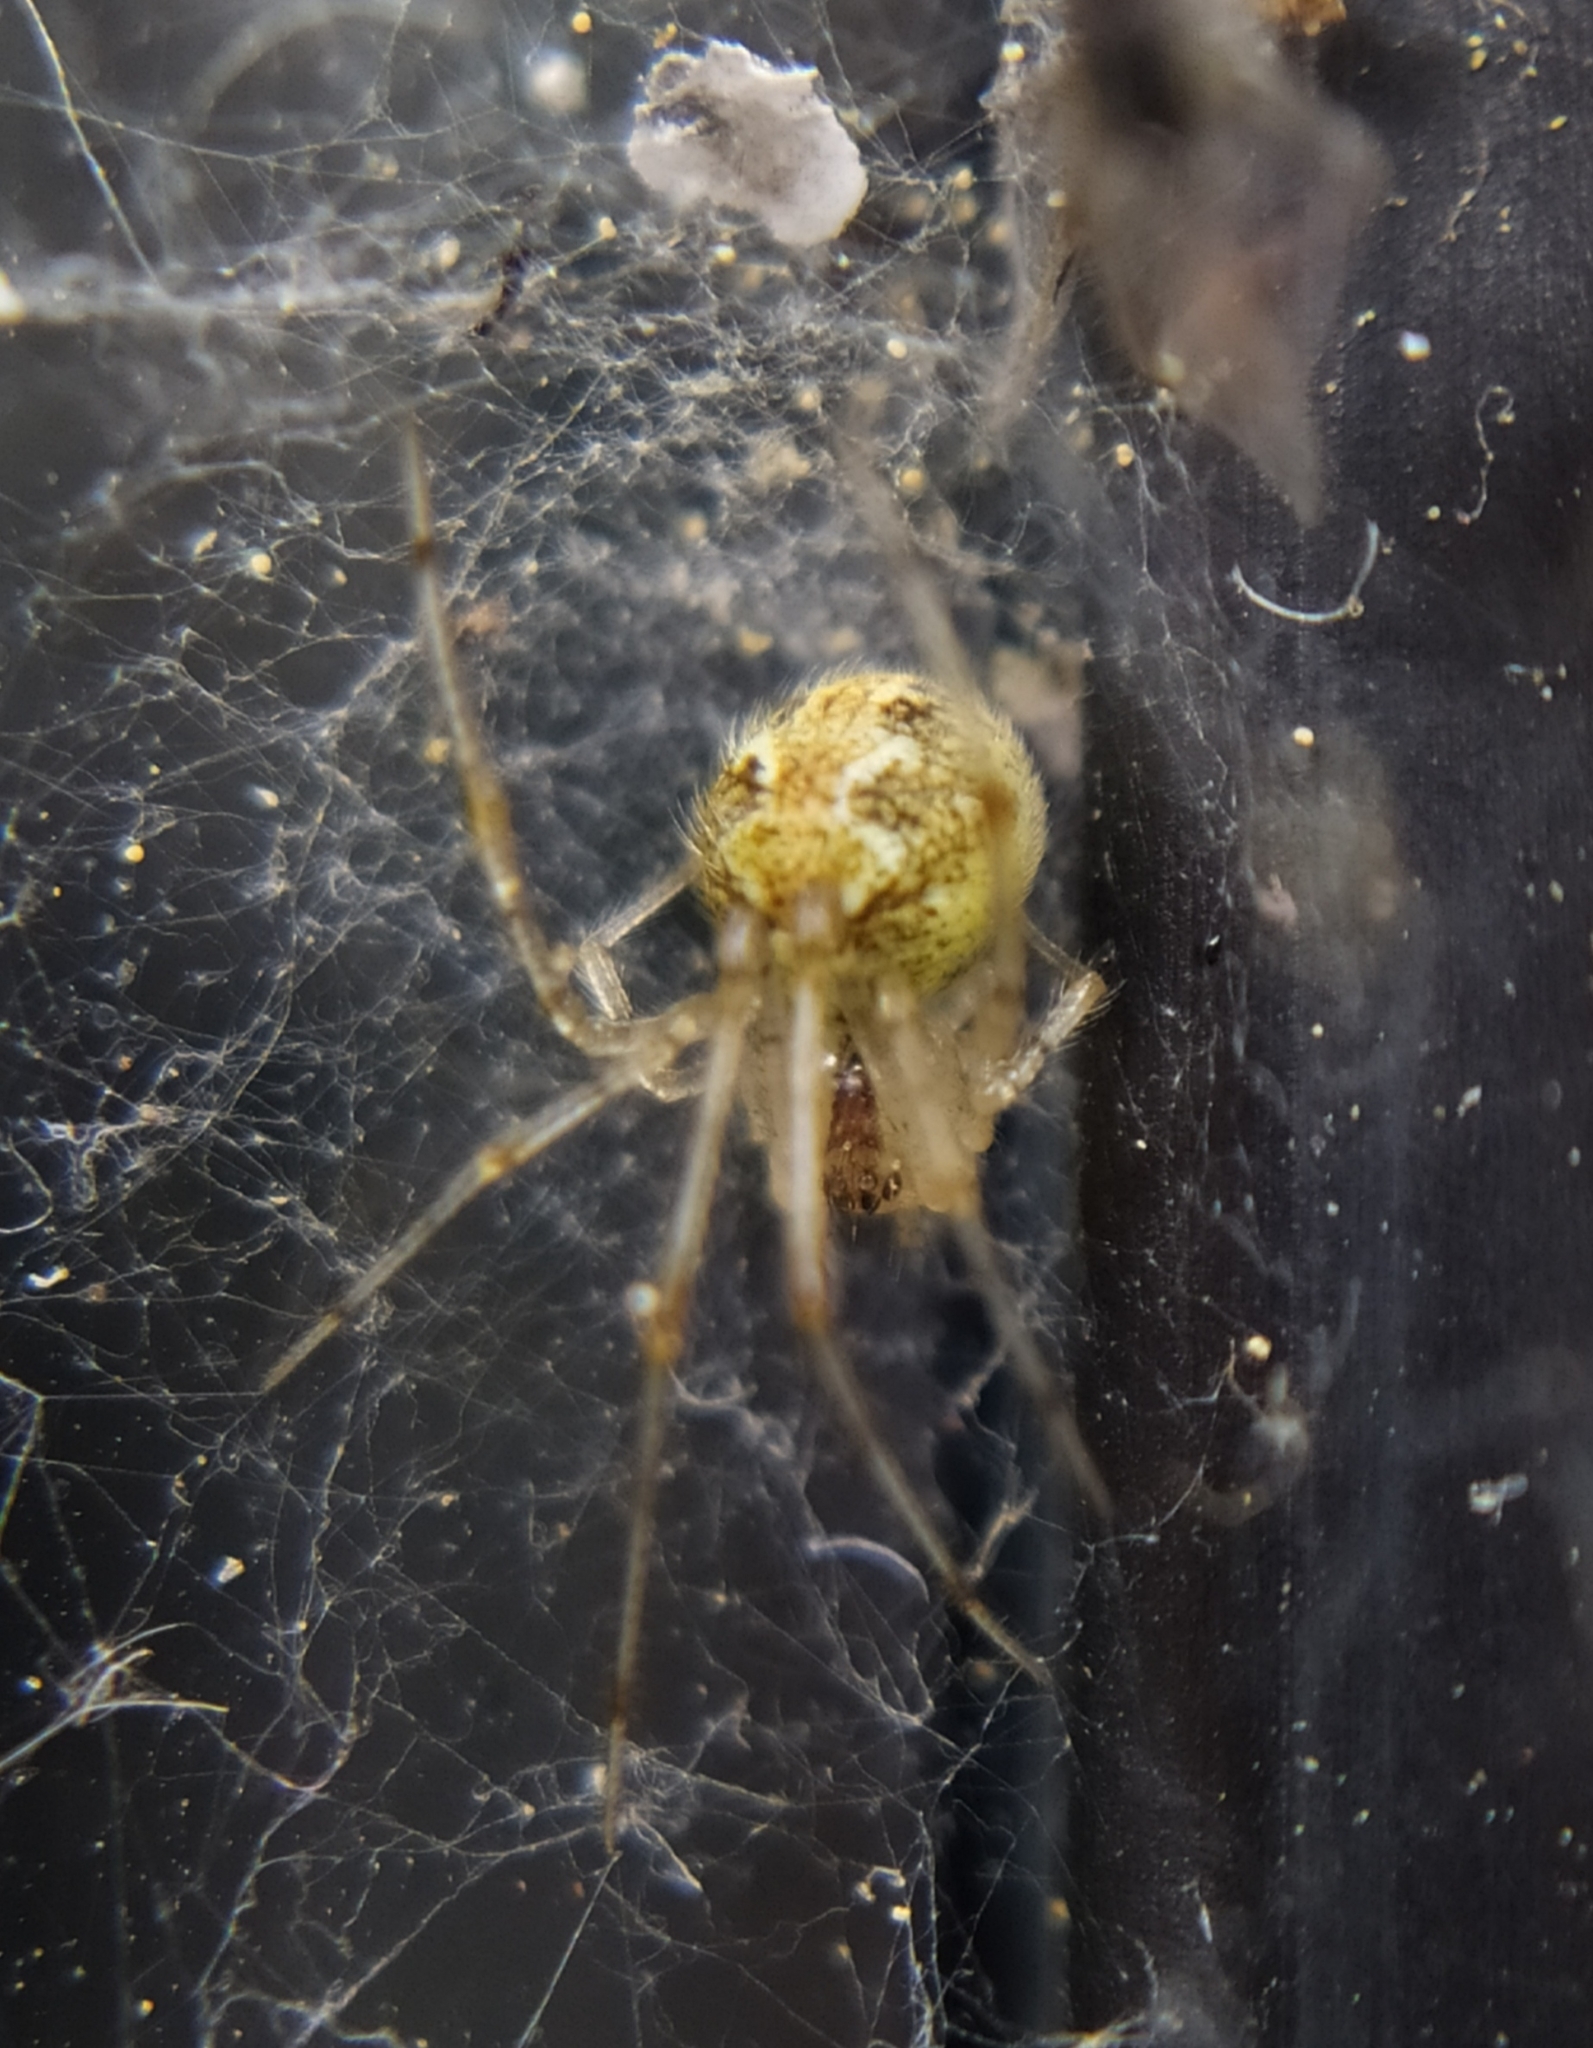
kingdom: Animalia
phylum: Arthropoda
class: Arachnida
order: Araneae
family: Theridiidae
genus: Theridion
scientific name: Theridion varians
